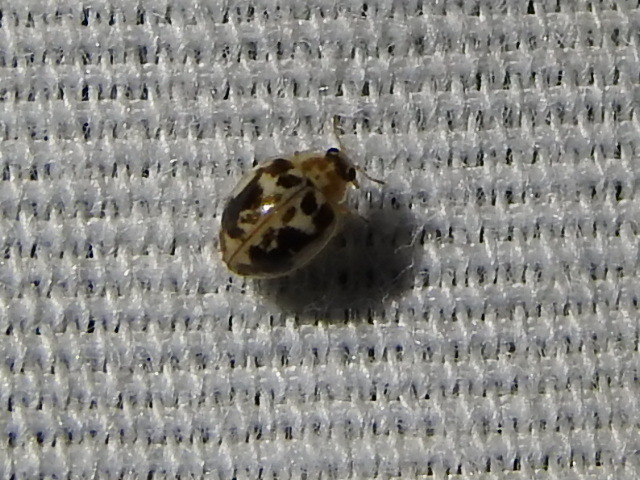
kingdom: Animalia
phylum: Arthropoda
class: Insecta
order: Coleoptera
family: Coccinellidae
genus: Psyllobora
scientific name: Psyllobora renifer
